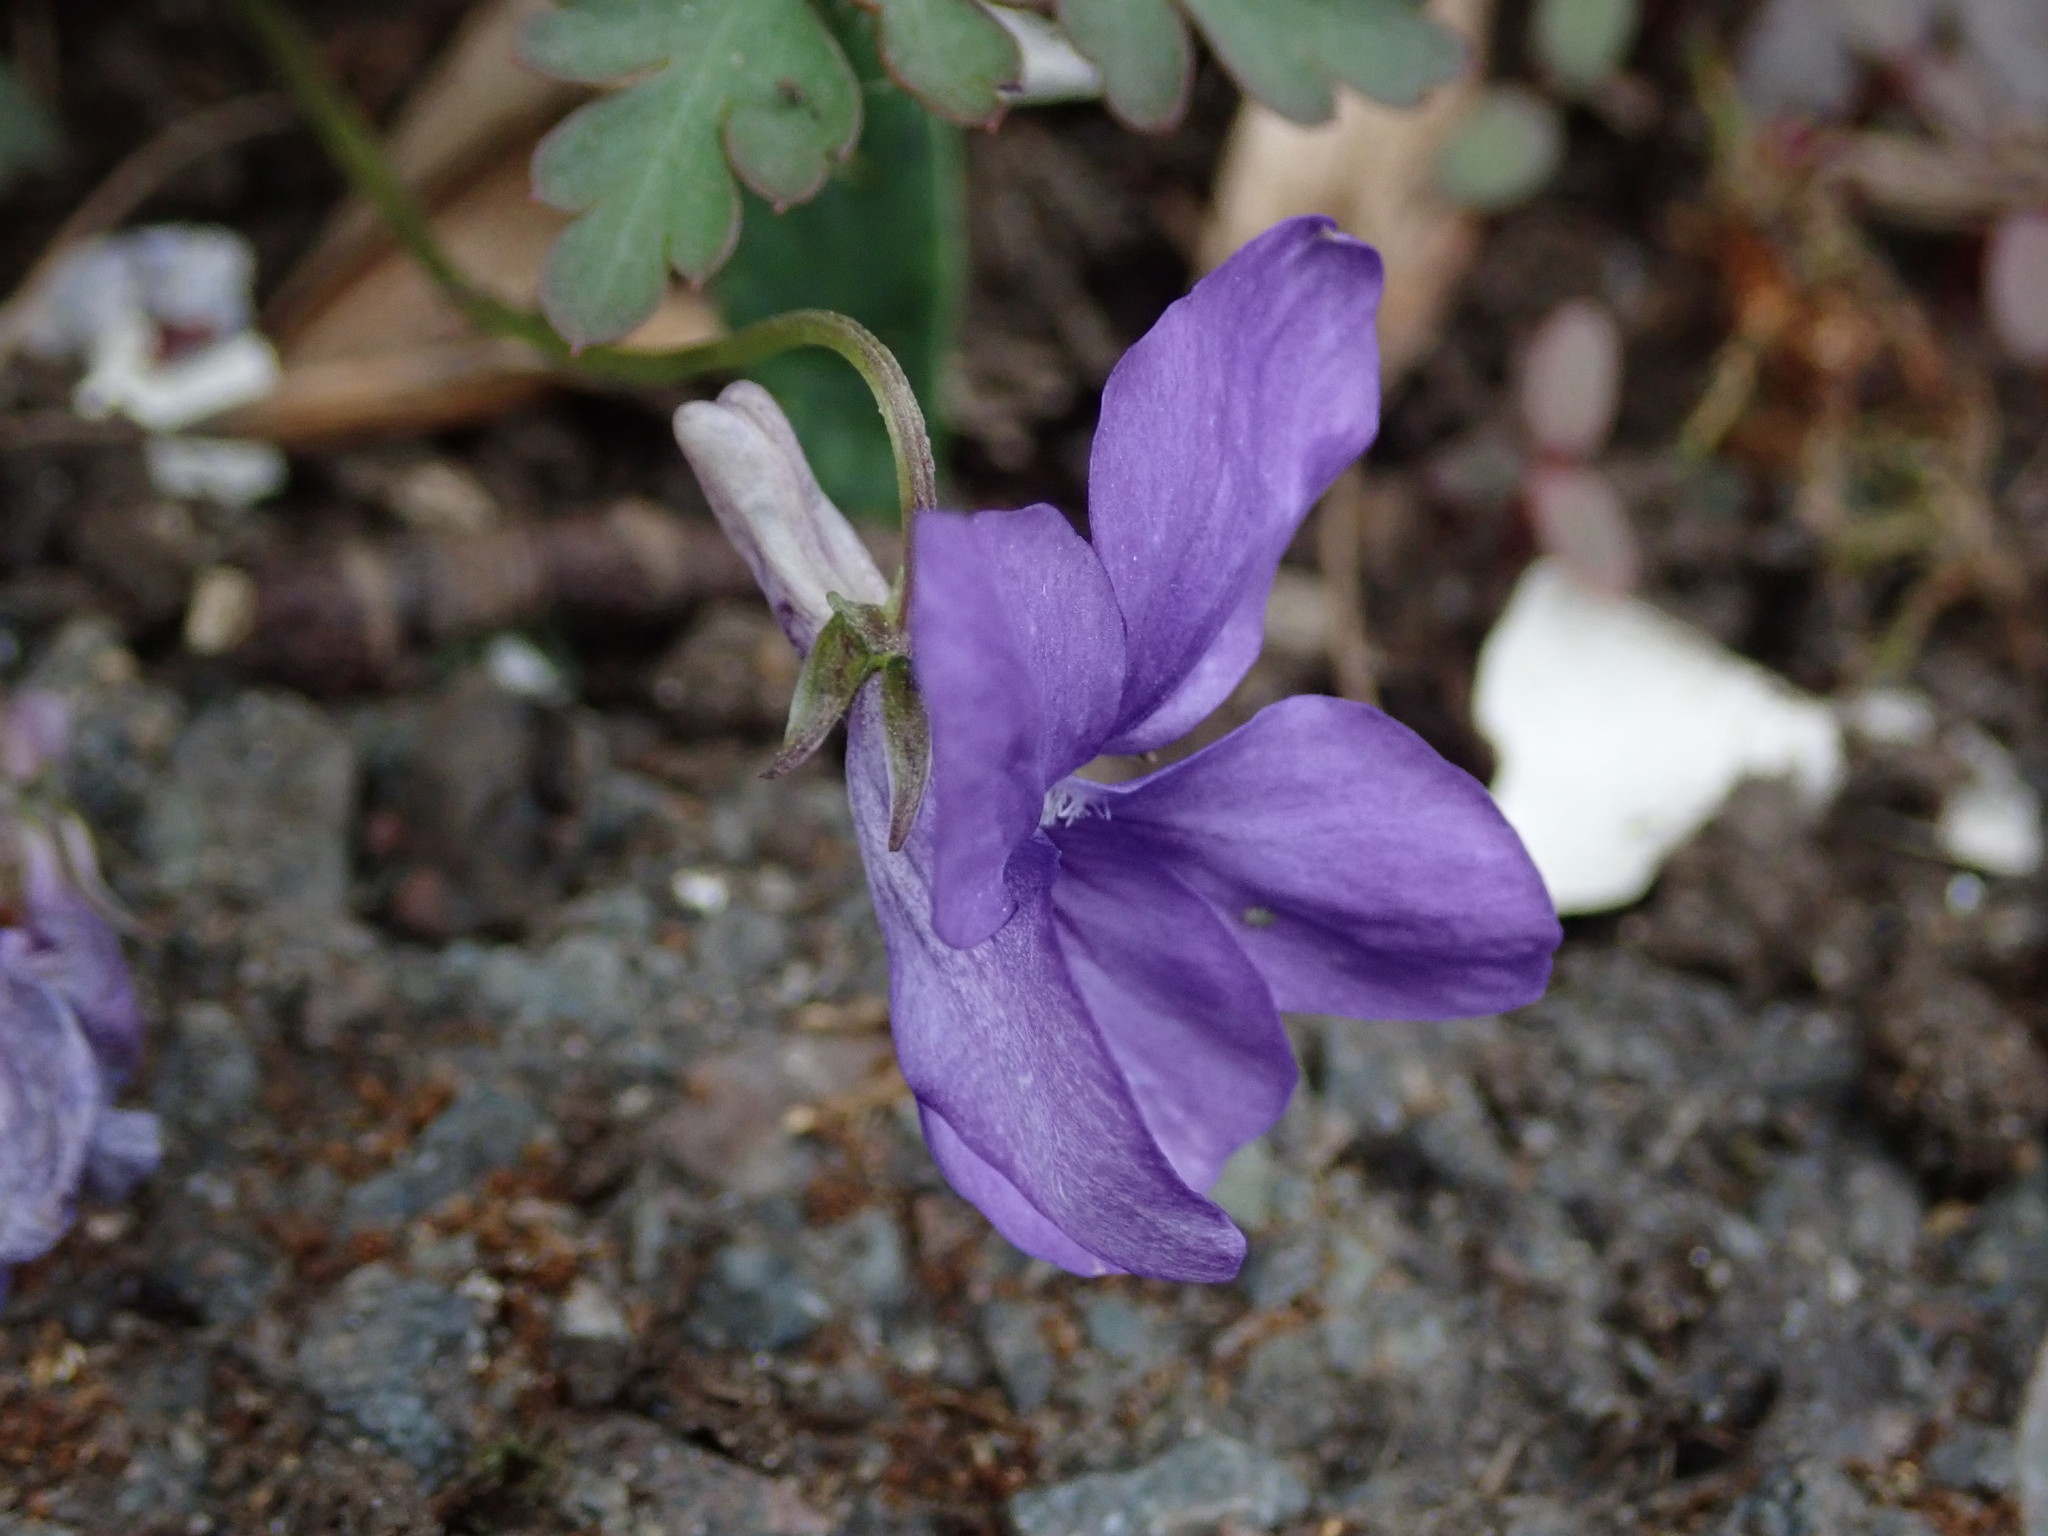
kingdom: Plantae
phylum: Tracheophyta
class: Magnoliopsida
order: Malpighiales
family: Violaceae
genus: Viola
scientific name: Viola riviniana
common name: Common dog-violet
